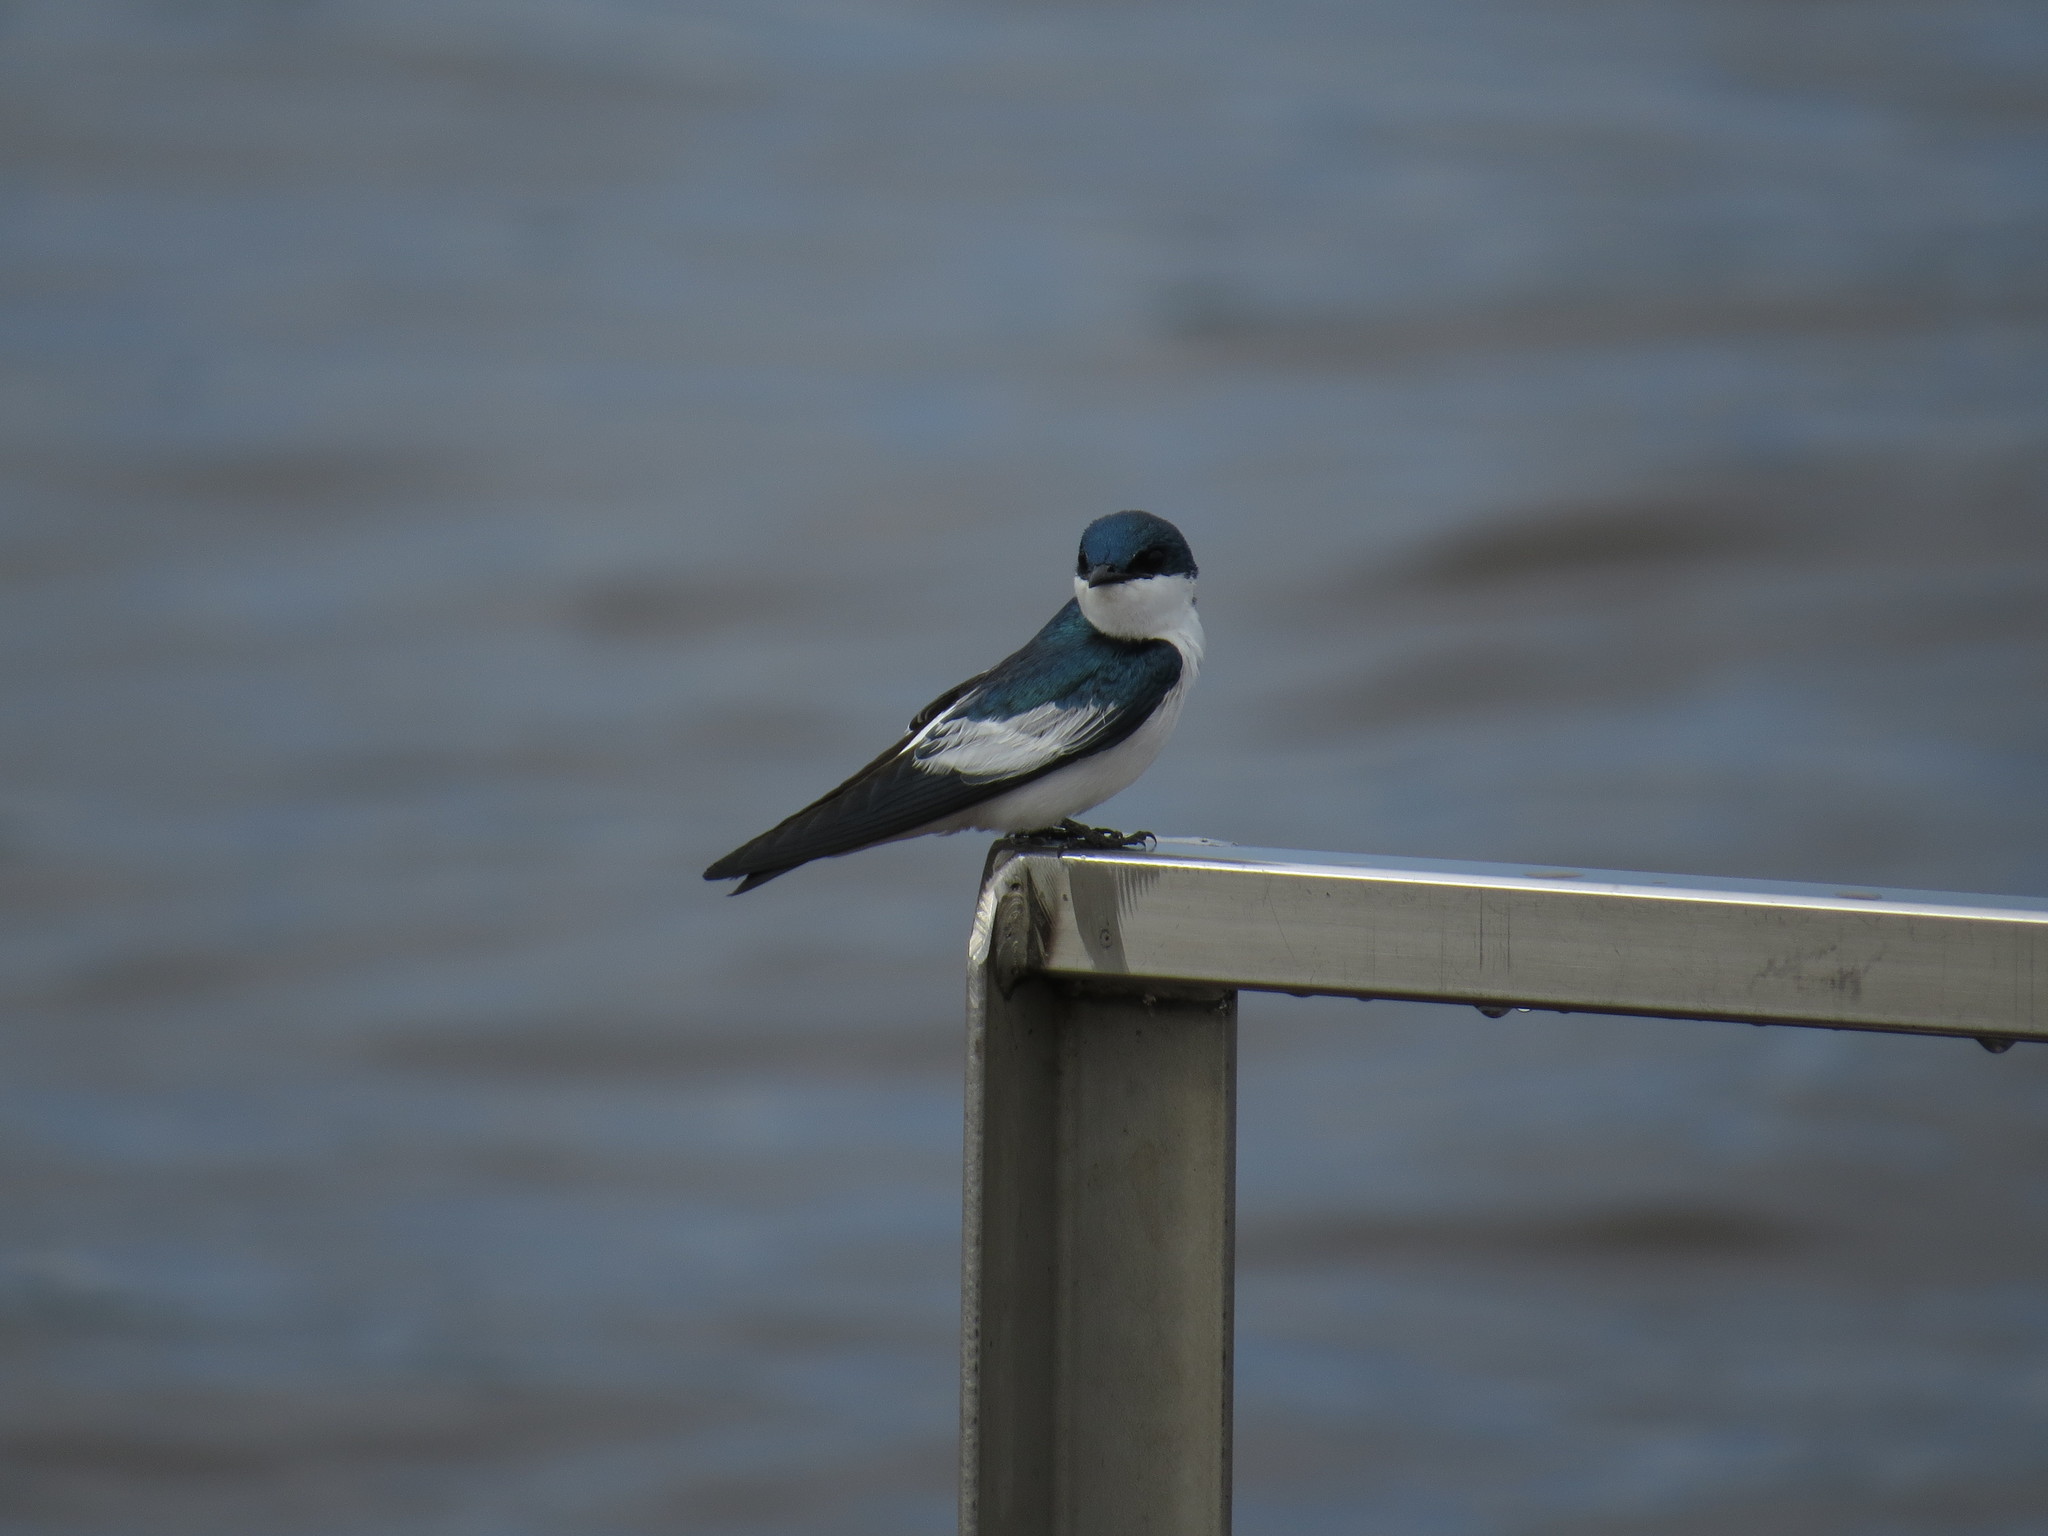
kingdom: Animalia
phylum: Chordata
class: Aves
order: Passeriformes
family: Hirundinidae
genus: Tachycineta
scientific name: Tachycineta albiventer
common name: White-winged swallow
